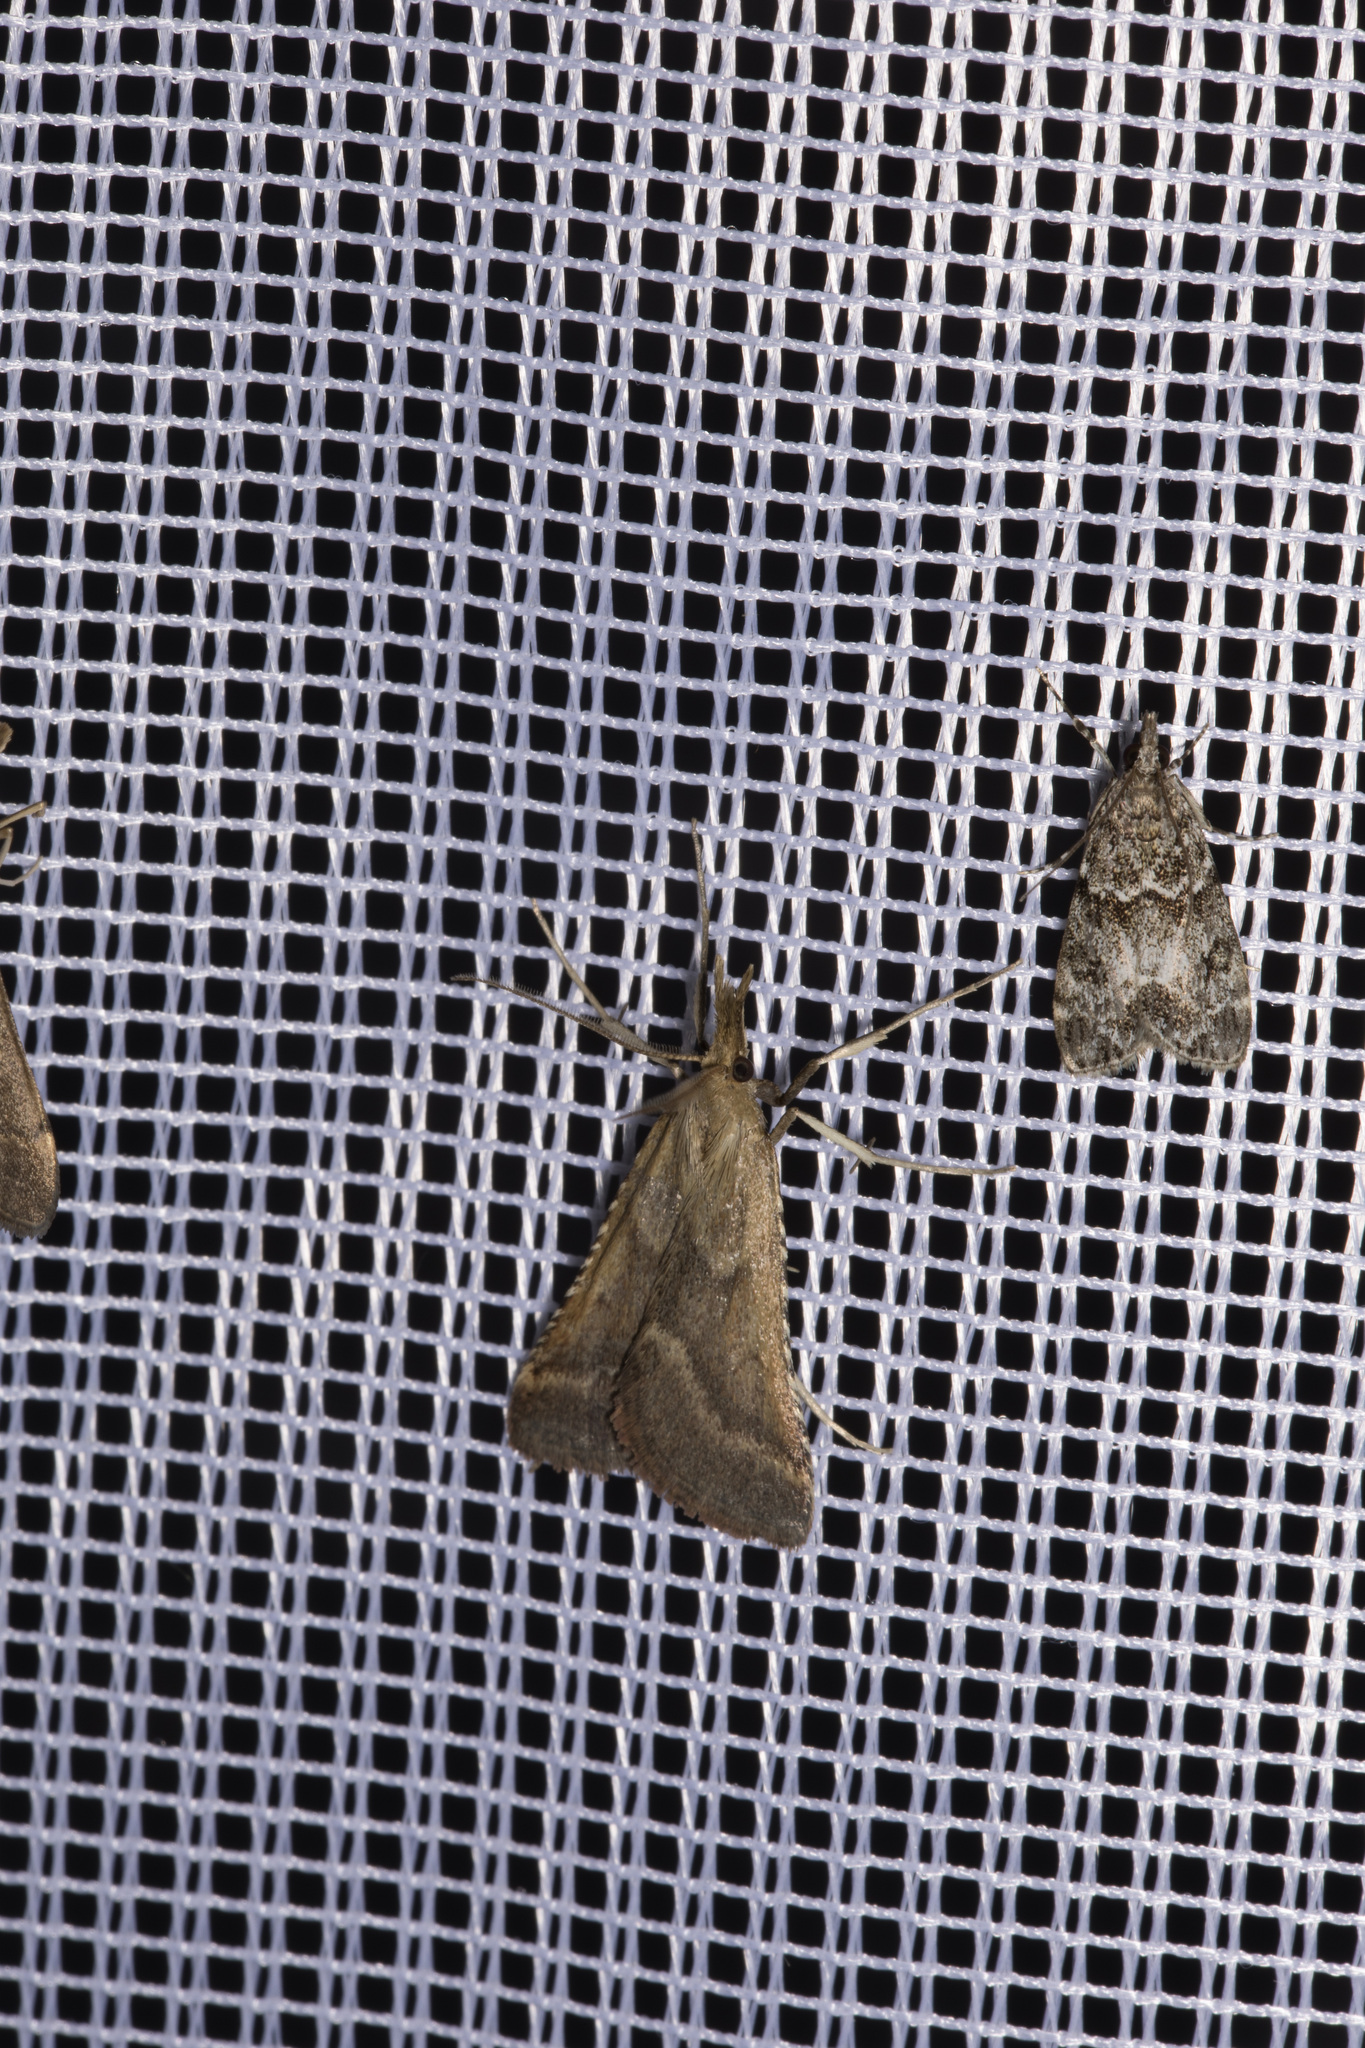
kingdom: Animalia
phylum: Arthropoda
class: Insecta
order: Lepidoptera
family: Pyralidae
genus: Synaphe
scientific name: Synaphe punctalis
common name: Long-legged tabby
